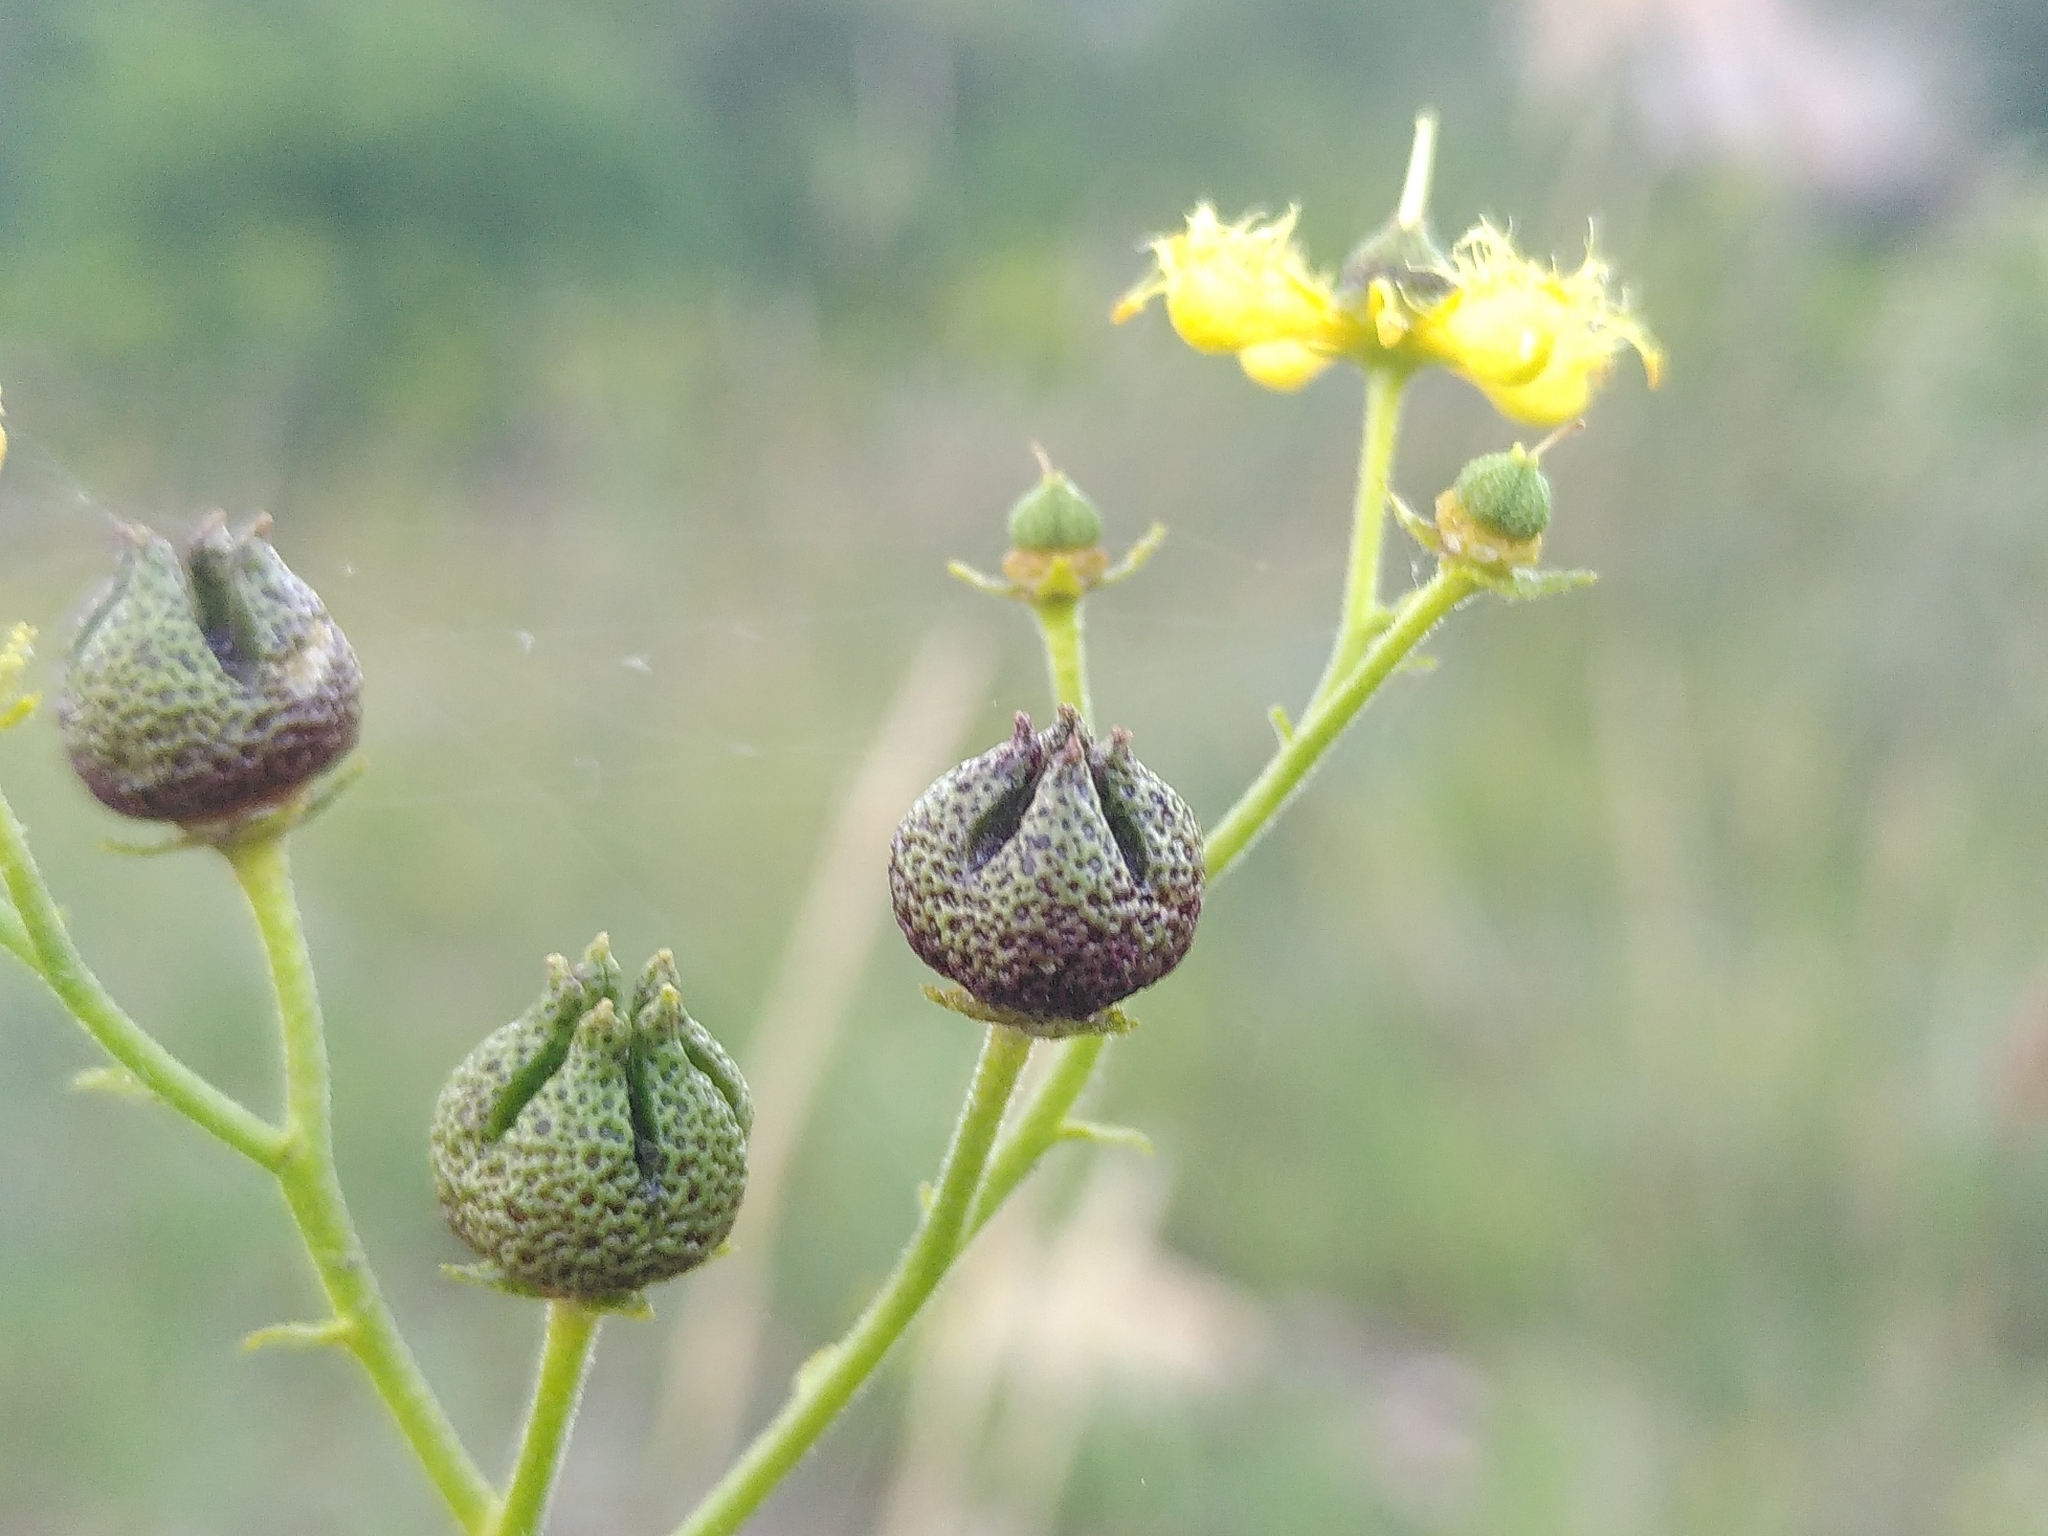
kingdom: Plantae
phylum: Tracheophyta
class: Magnoliopsida
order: Sapindales
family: Rutaceae
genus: Ruta
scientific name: Ruta angustifolia
